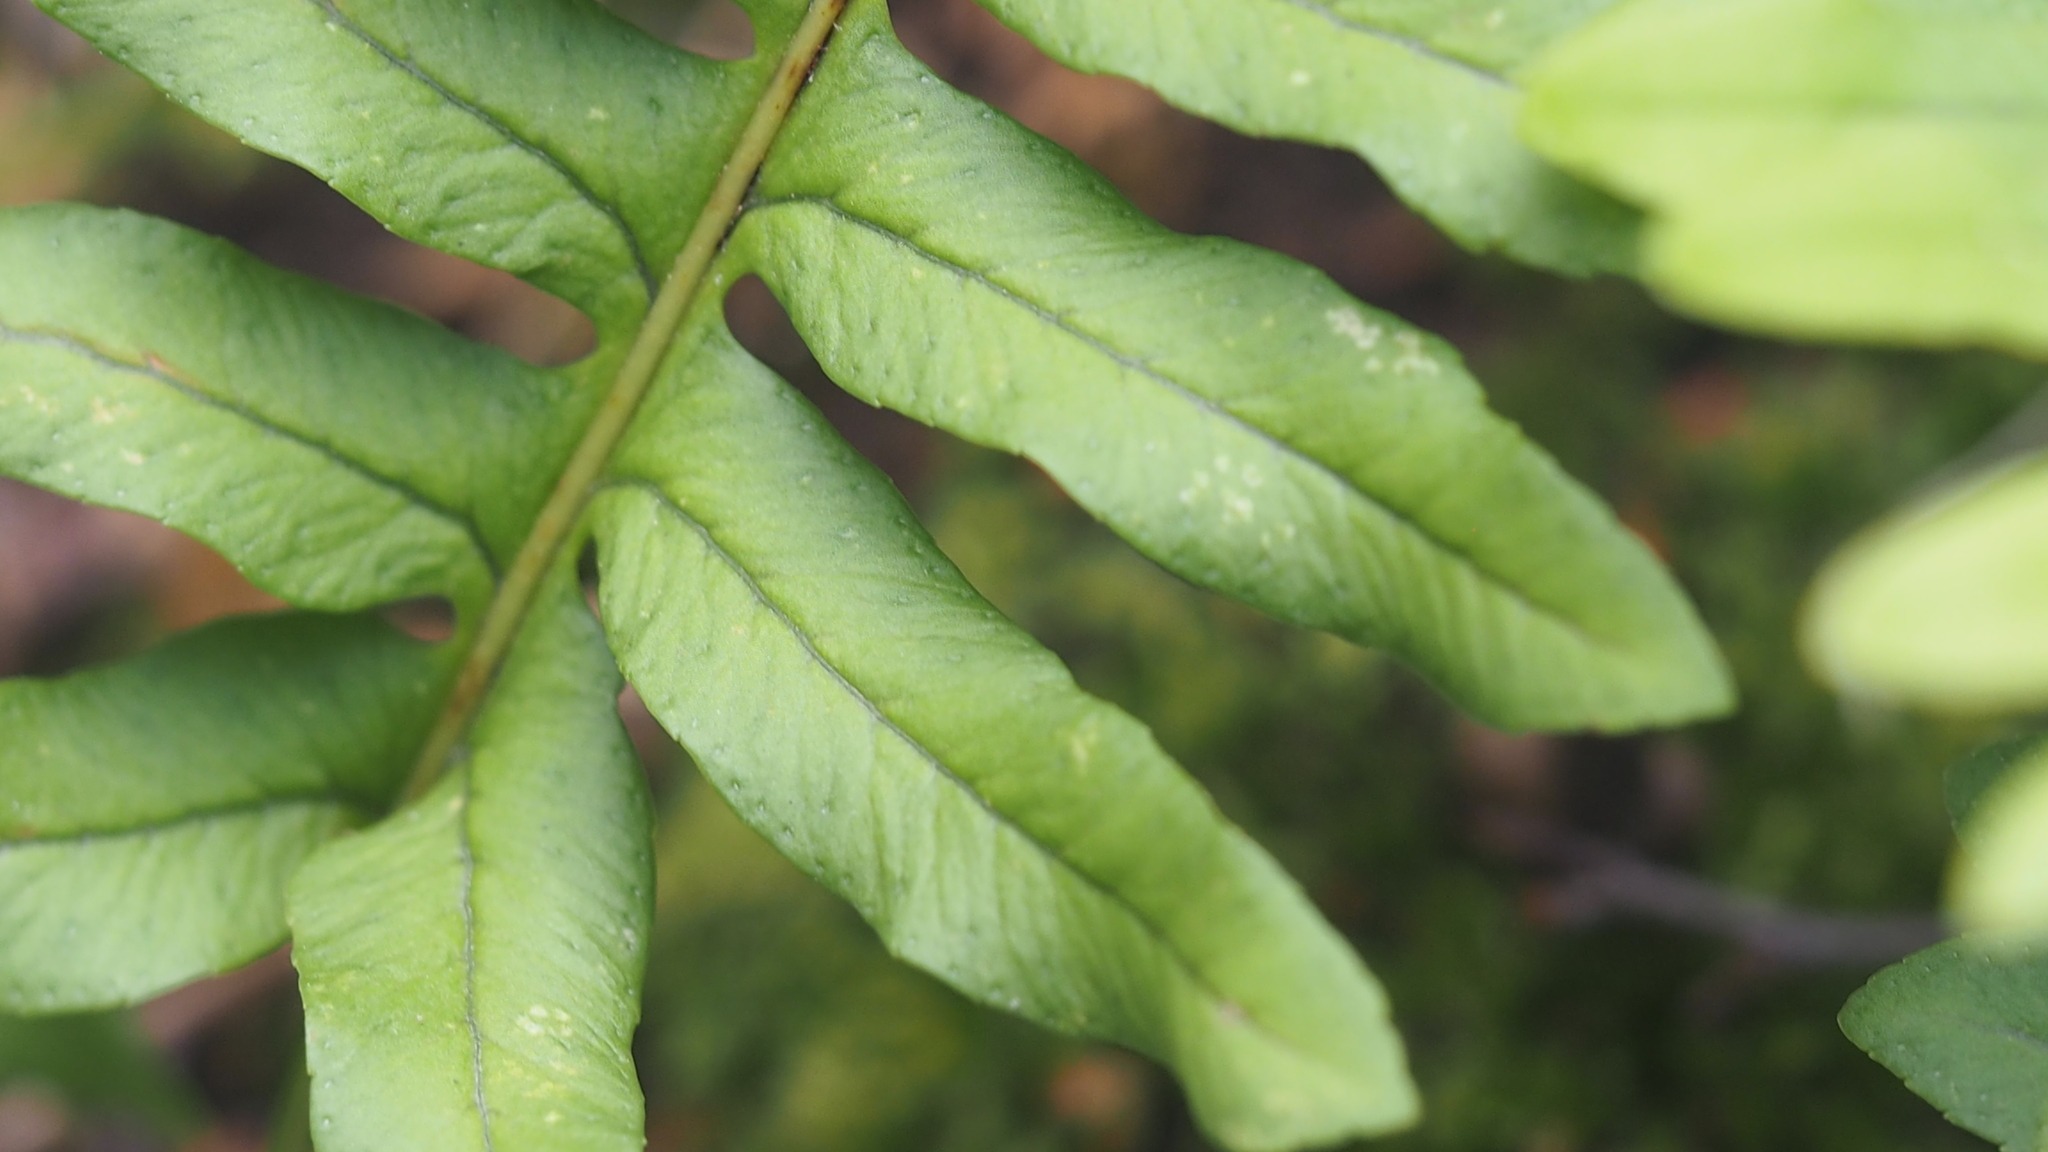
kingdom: Plantae
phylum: Tracheophyta
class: Polypodiopsida
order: Polypodiales
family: Polypodiaceae
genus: Polypodium
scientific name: Polypodium
